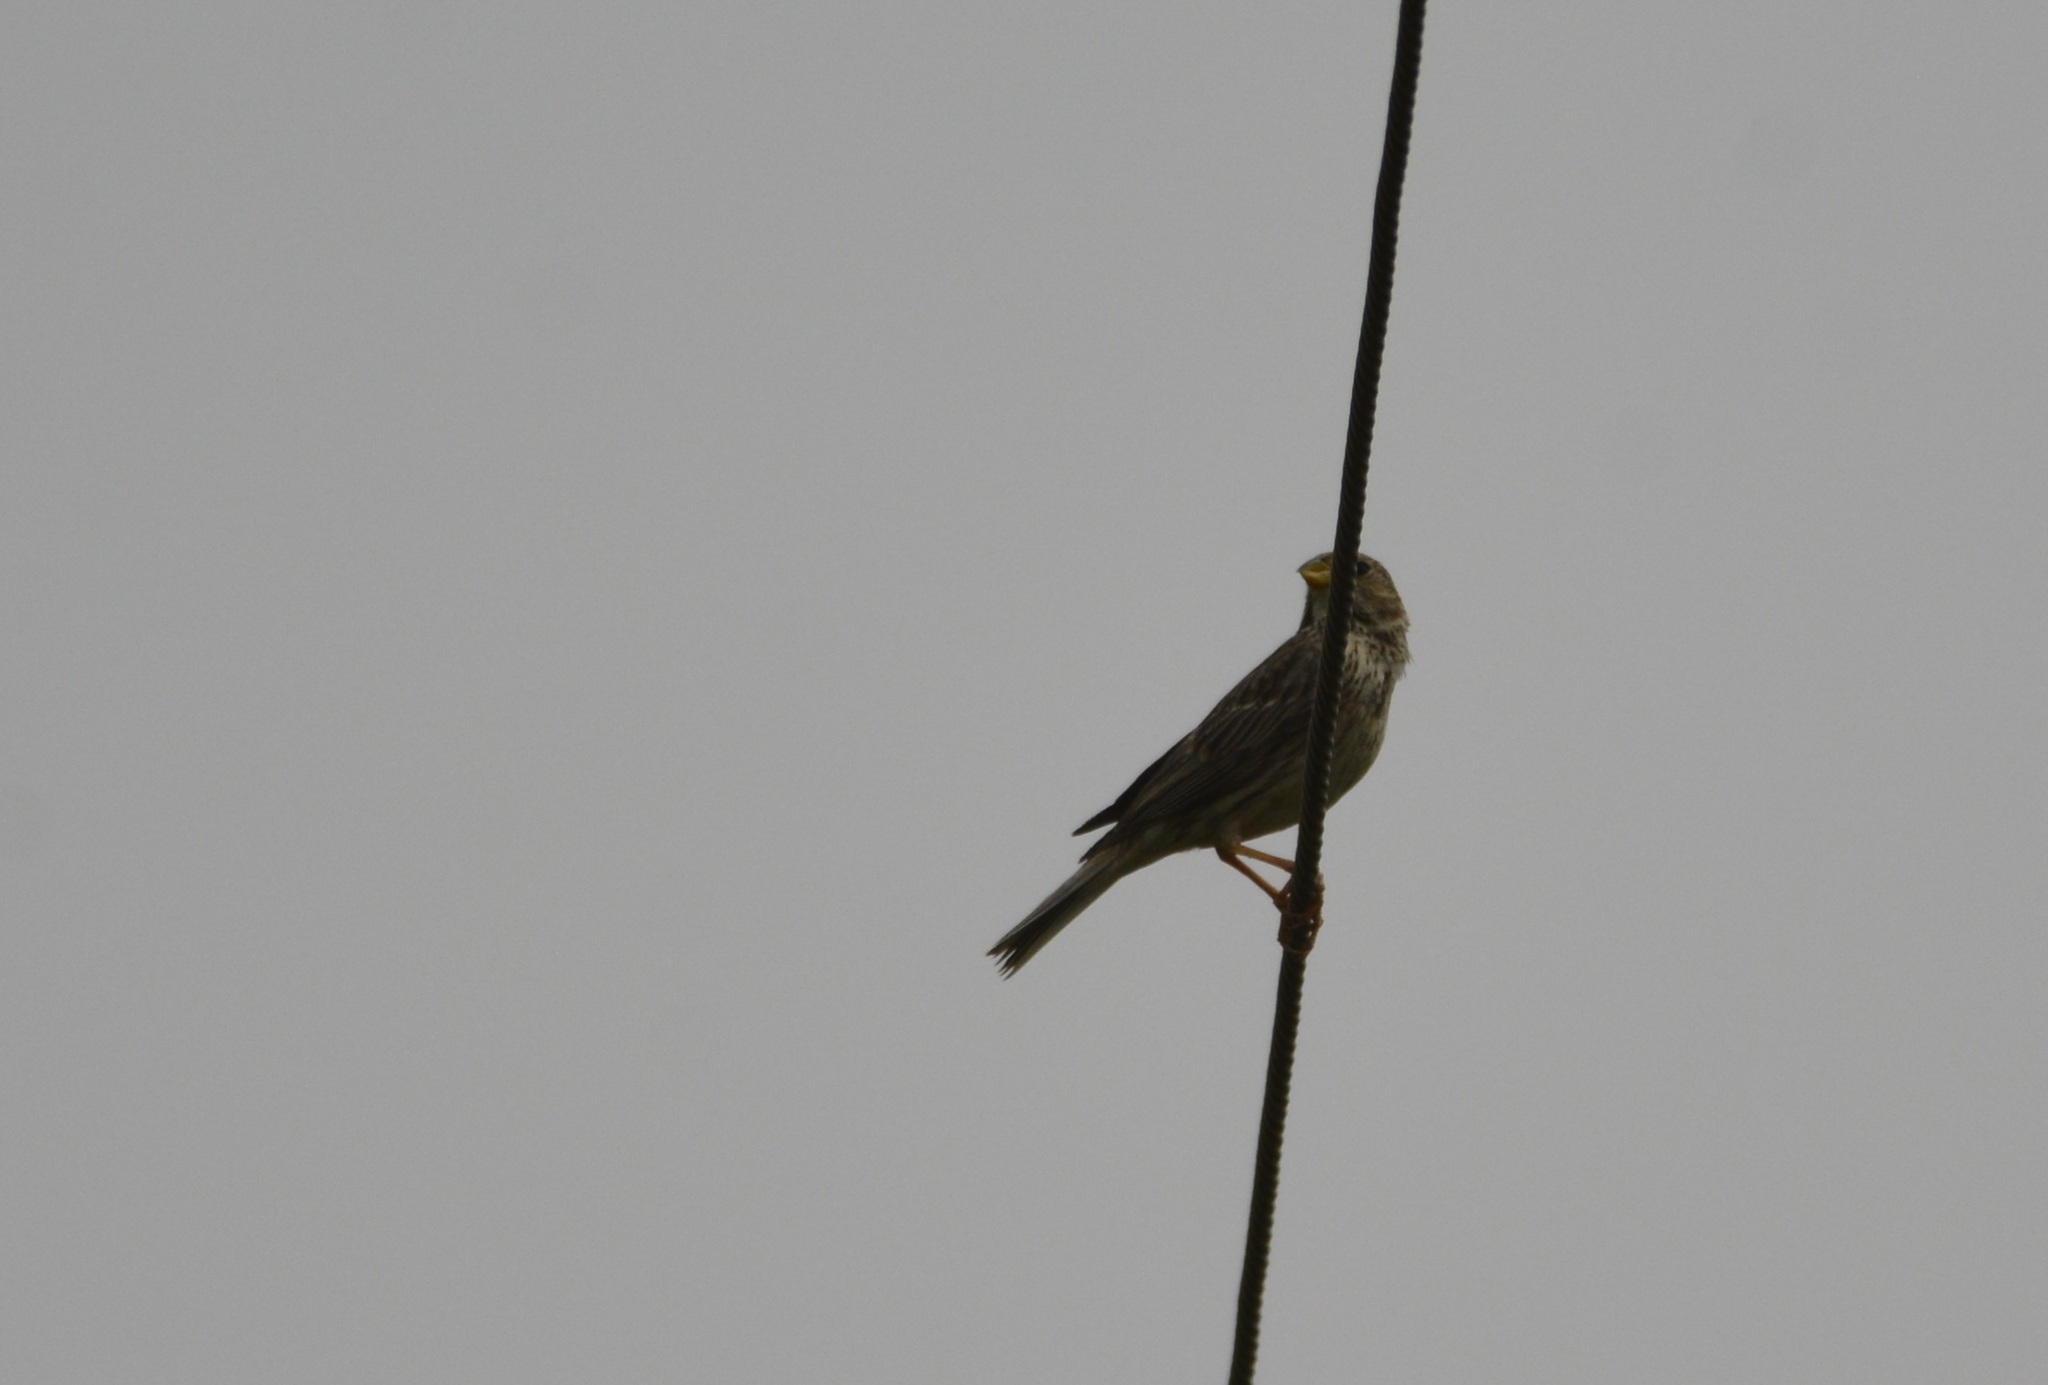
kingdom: Animalia
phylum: Chordata
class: Aves
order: Passeriformes
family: Emberizidae
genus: Emberiza
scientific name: Emberiza calandra
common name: Corn bunting
